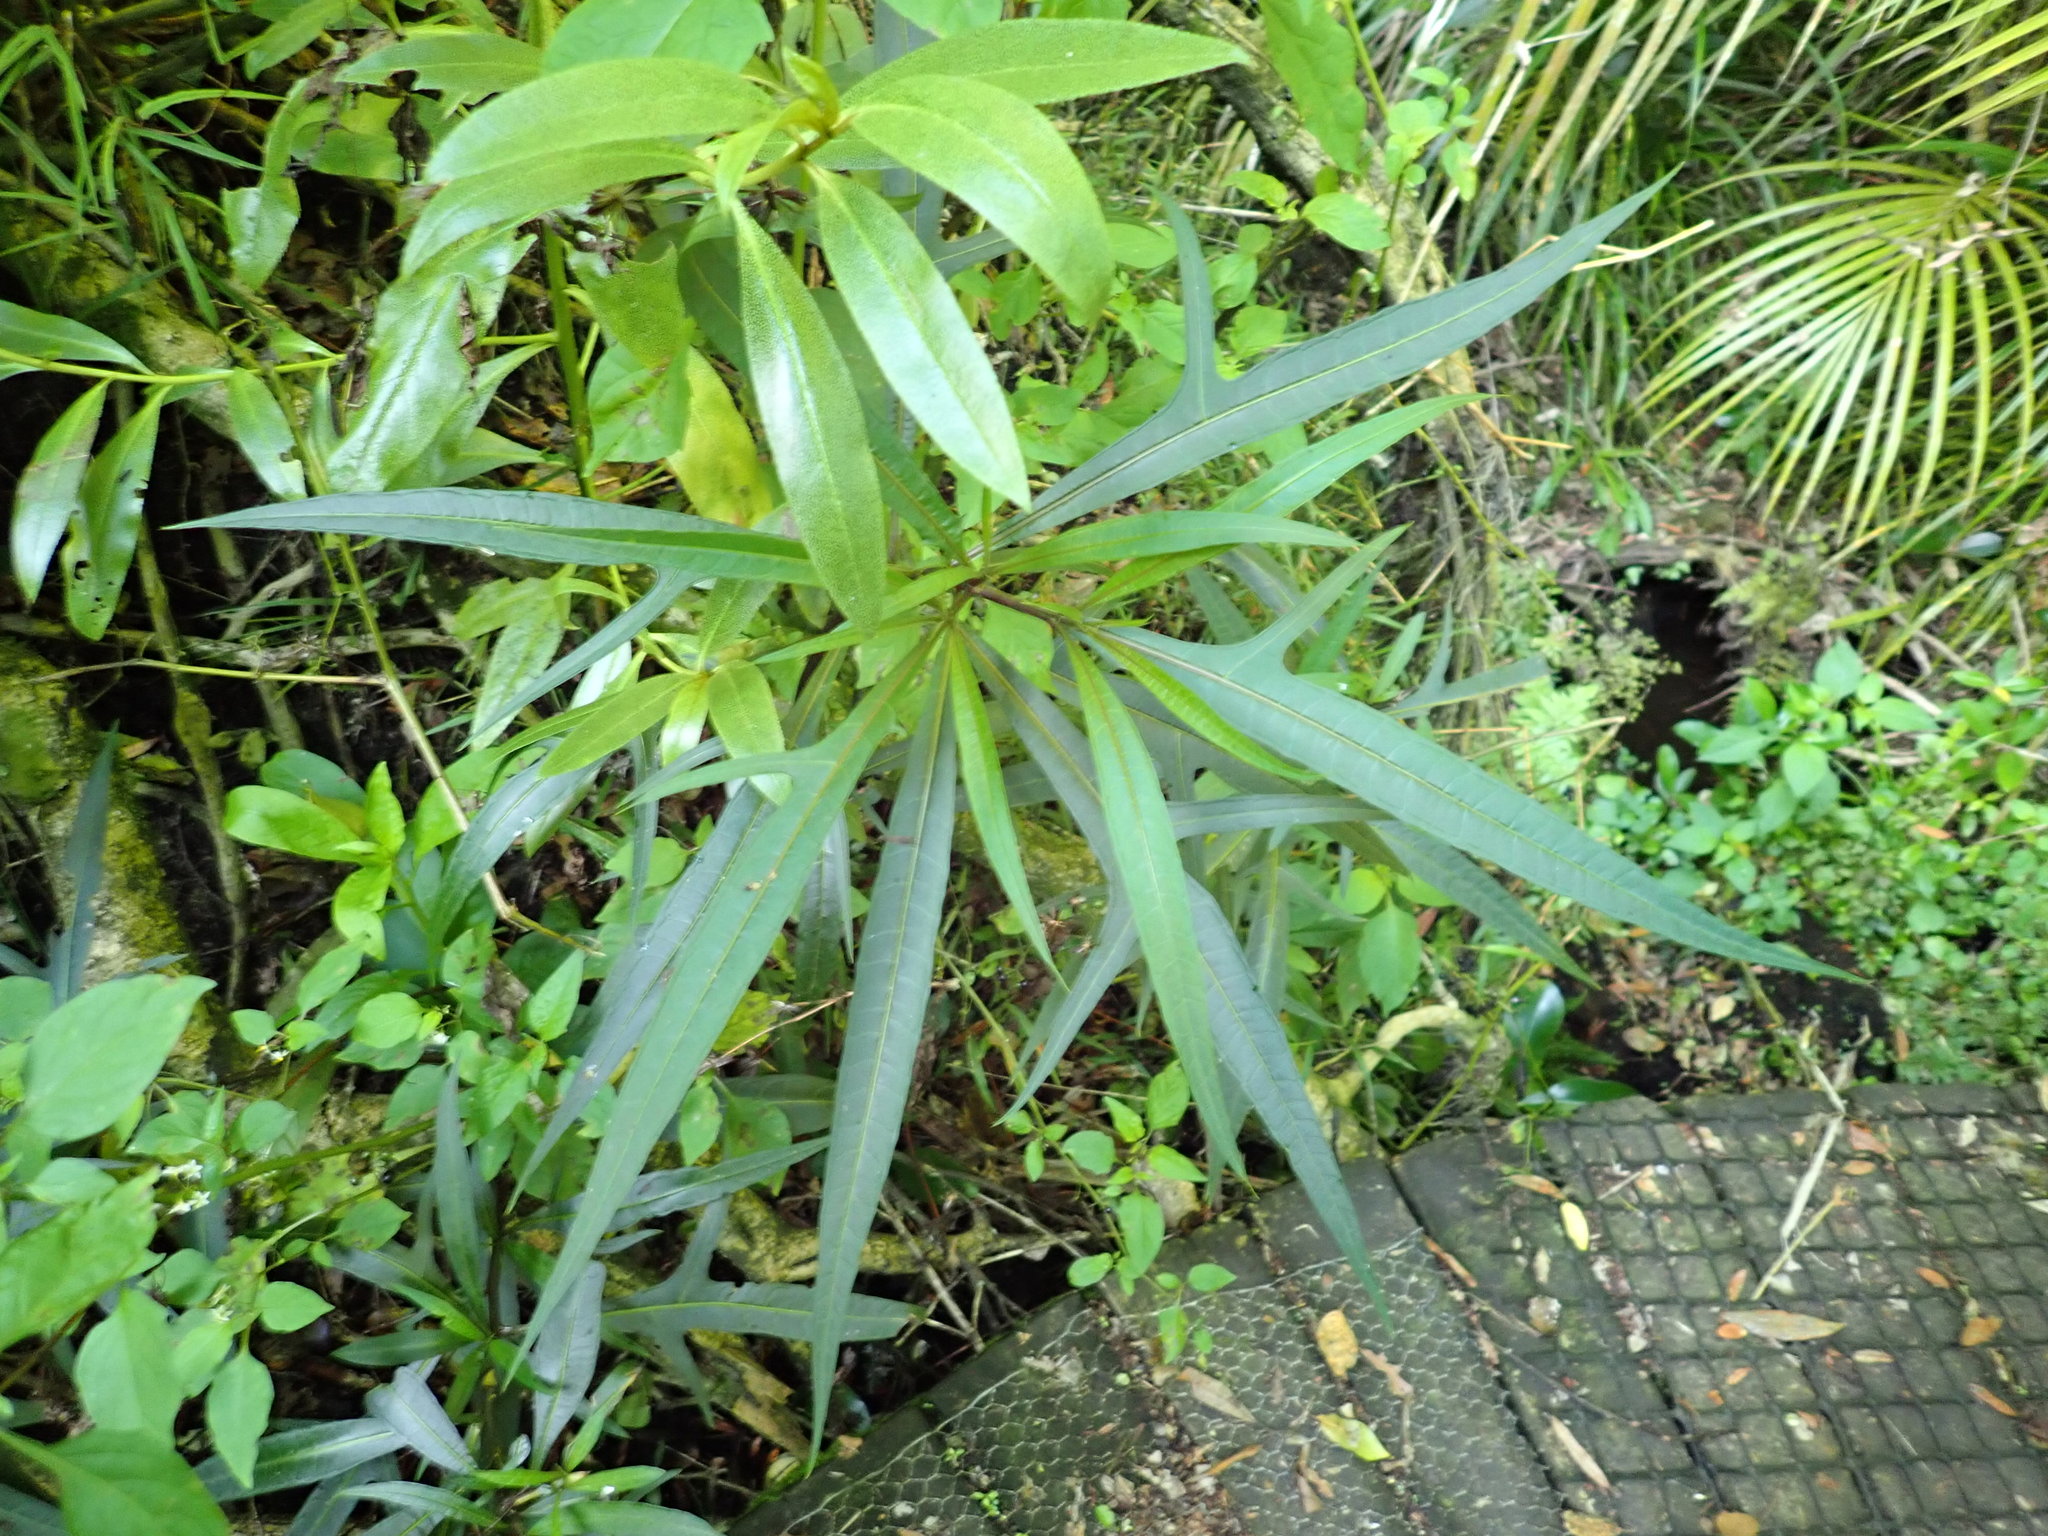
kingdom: Plantae
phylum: Tracheophyta
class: Magnoliopsida
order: Solanales
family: Solanaceae
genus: Solanum
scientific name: Solanum
